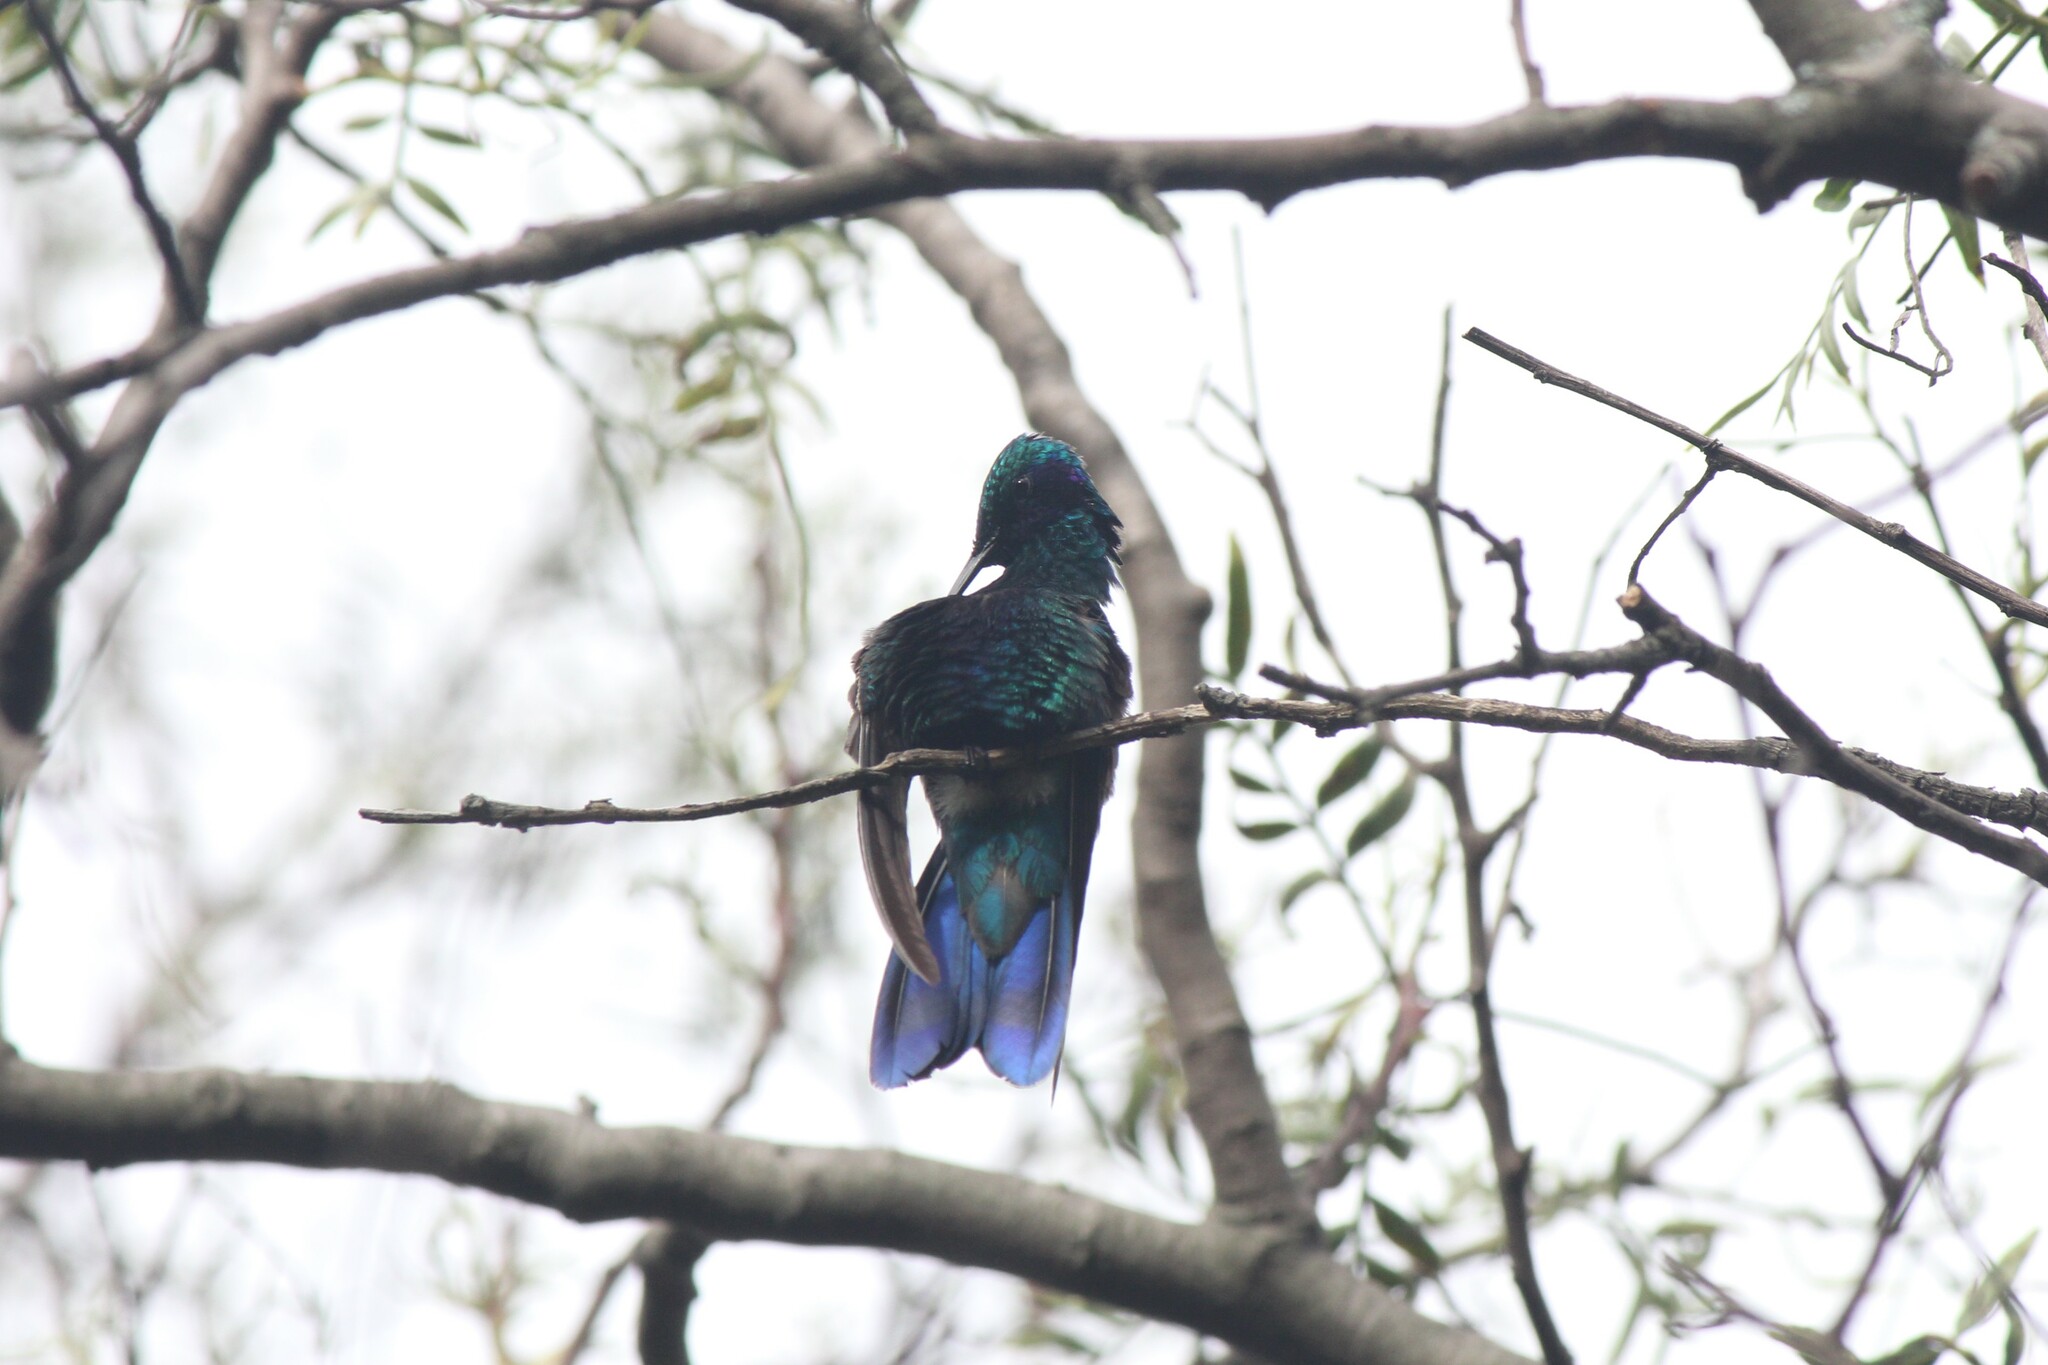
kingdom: Animalia
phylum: Chordata
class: Aves
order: Apodiformes
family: Trochilidae
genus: Colibri
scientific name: Colibri coruscans
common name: Sparkling violetear
